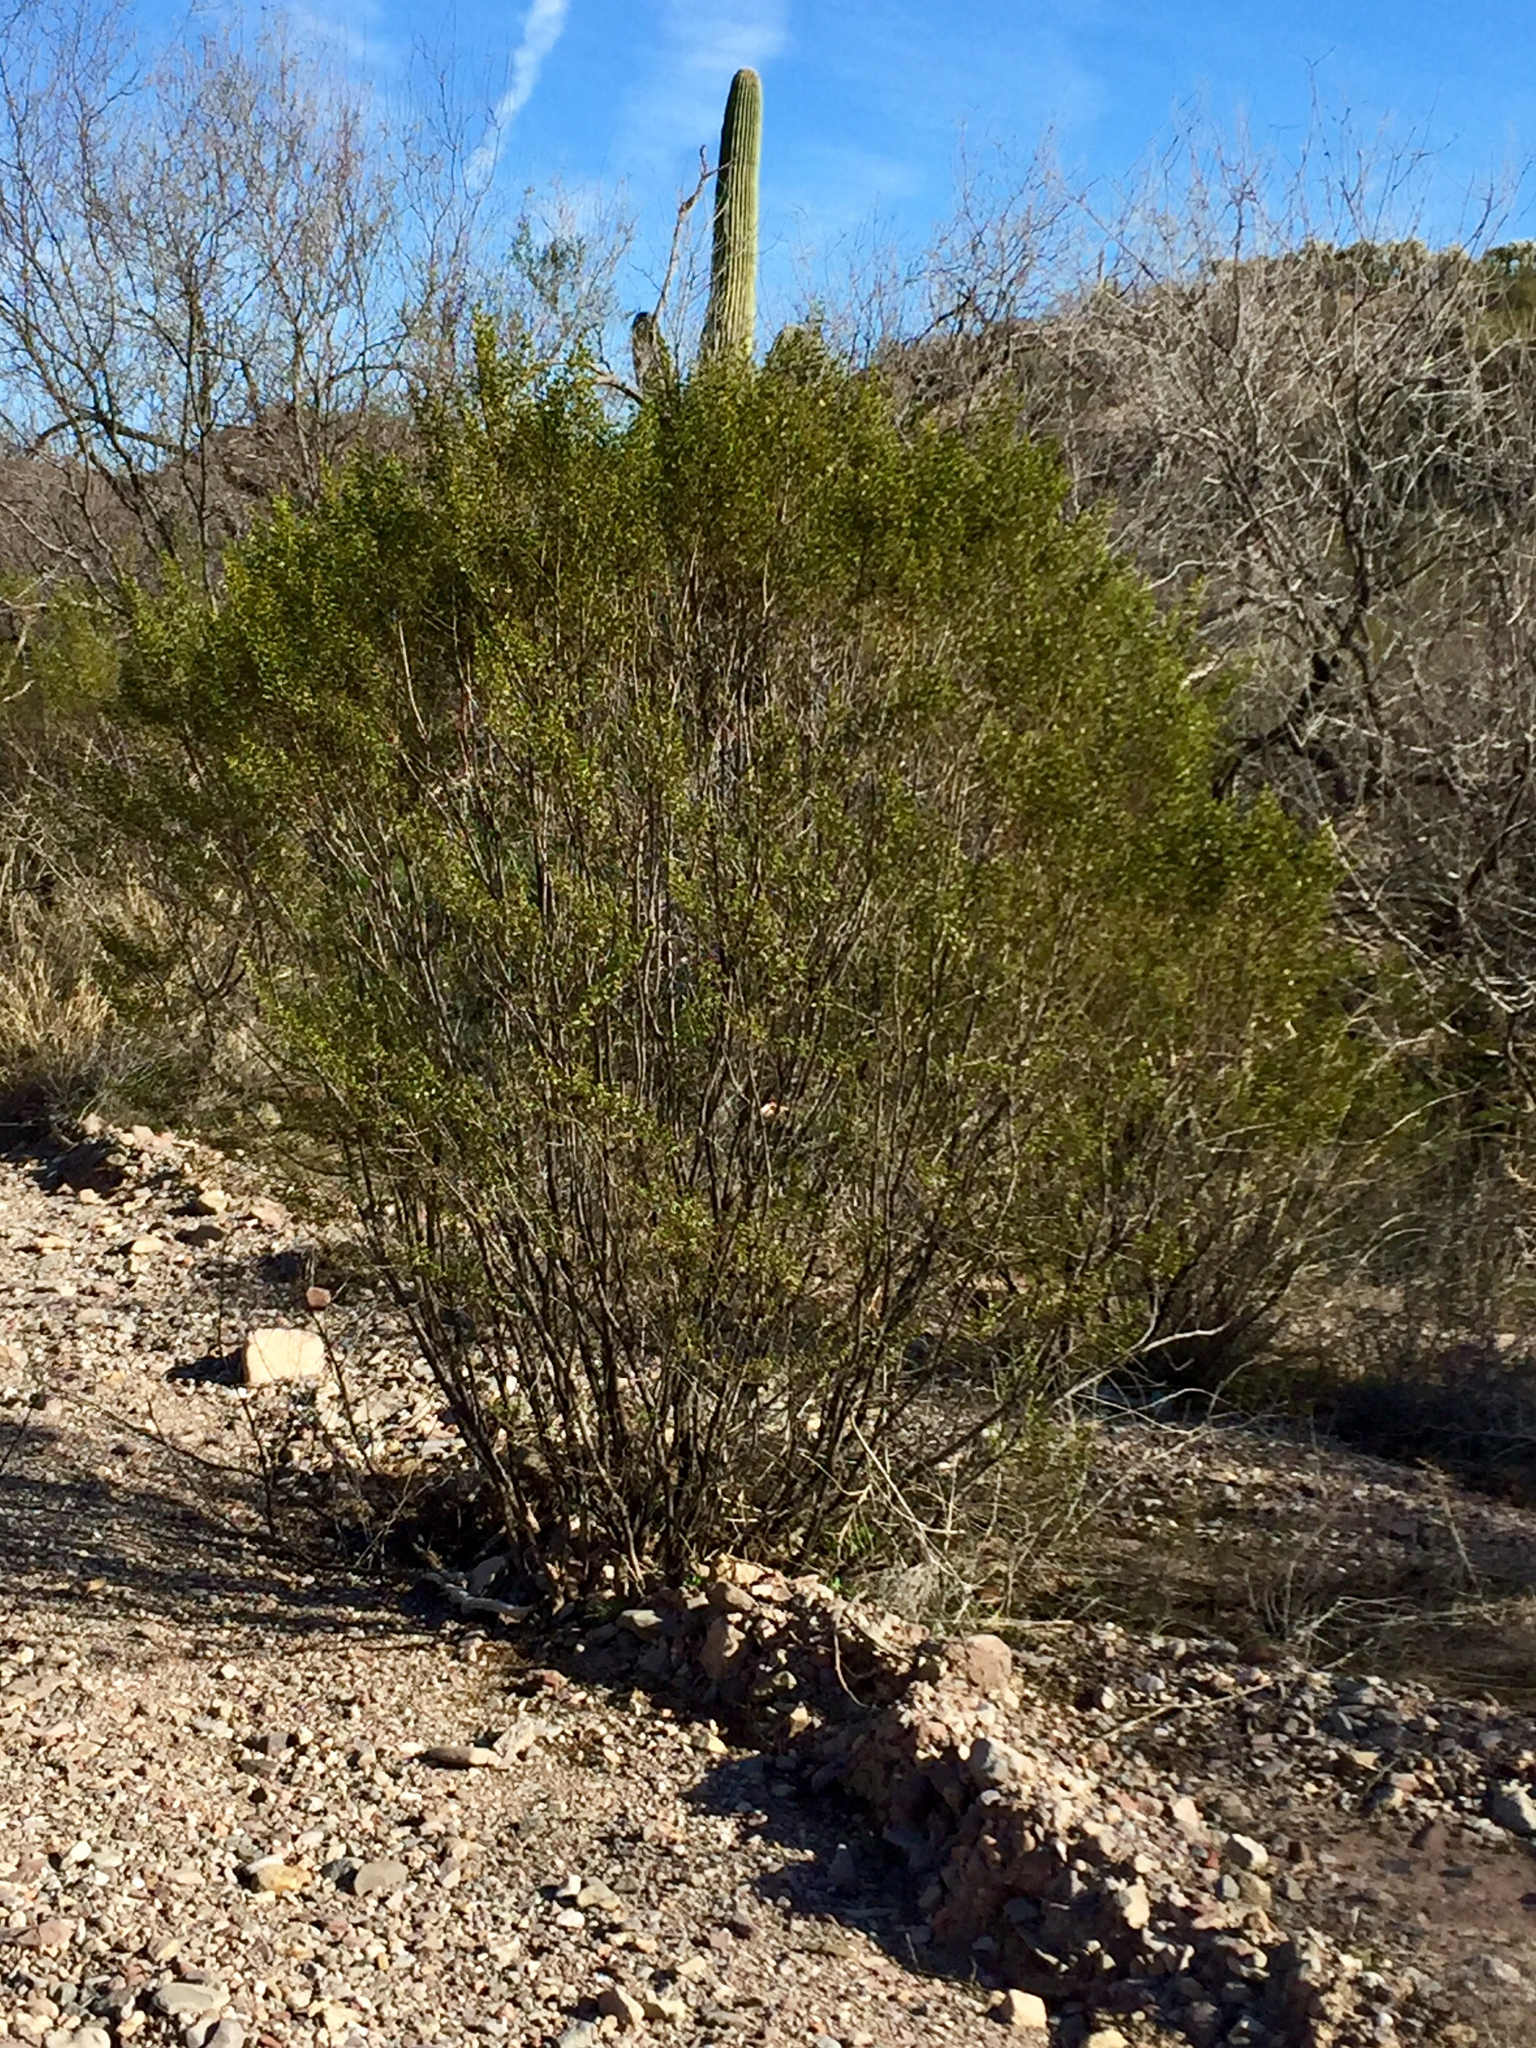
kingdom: Plantae
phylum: Tracheophyta
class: Magnoliopsida
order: Zygophyllales
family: Zygophyllaceae
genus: Larrea
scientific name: Larrea tridentata
